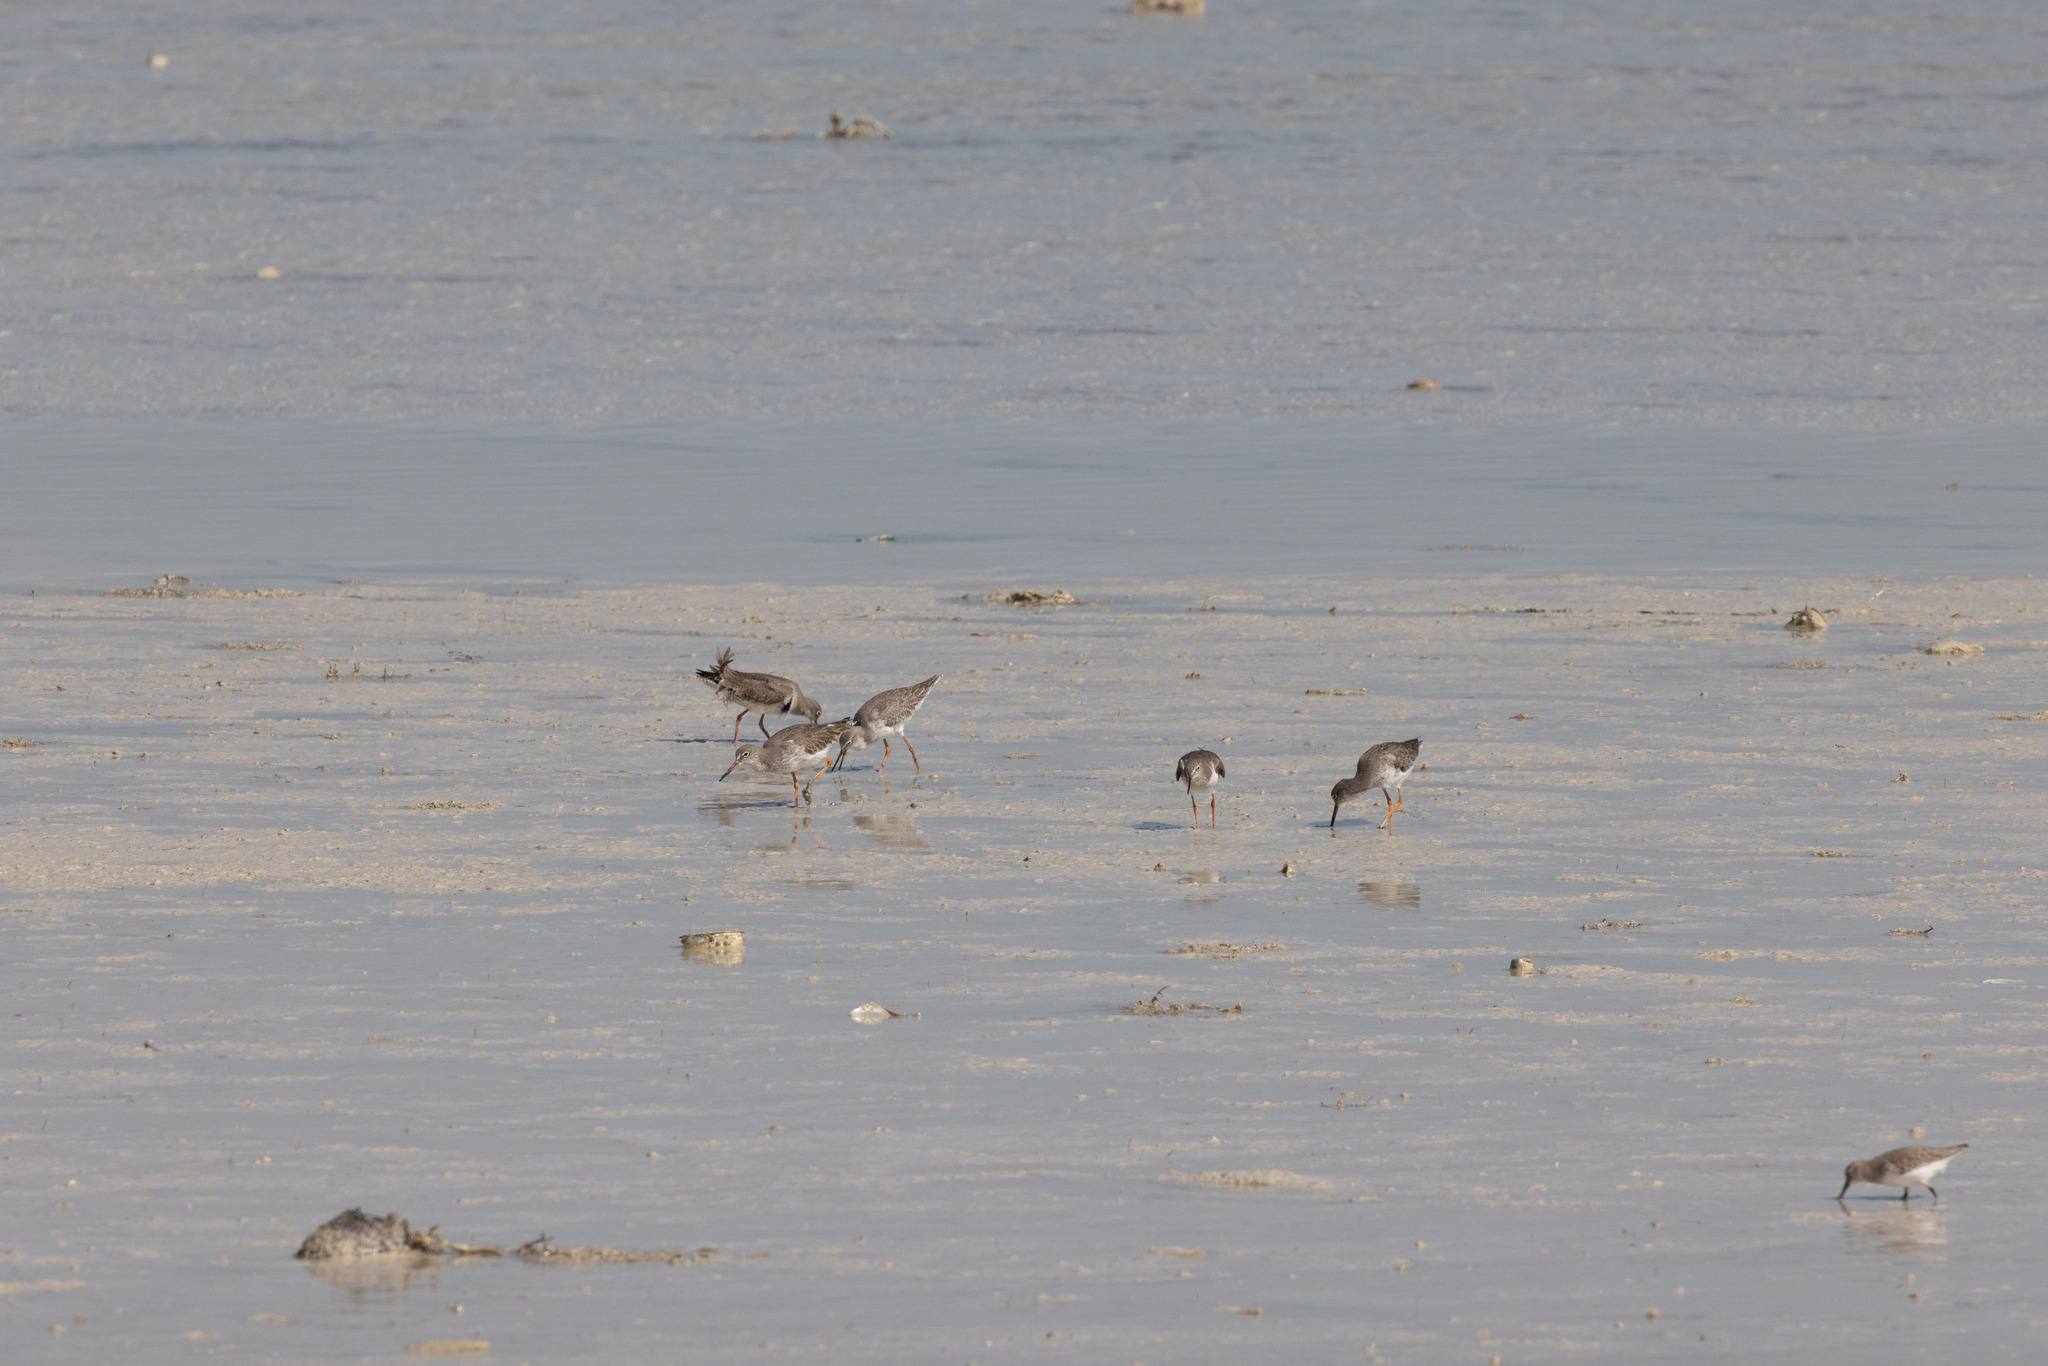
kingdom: Animalia
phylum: Chordata
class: Aves
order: Charadriiformes
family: Scolopacidae
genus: Tringa
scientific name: Tringa totanus
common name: Common redshank
